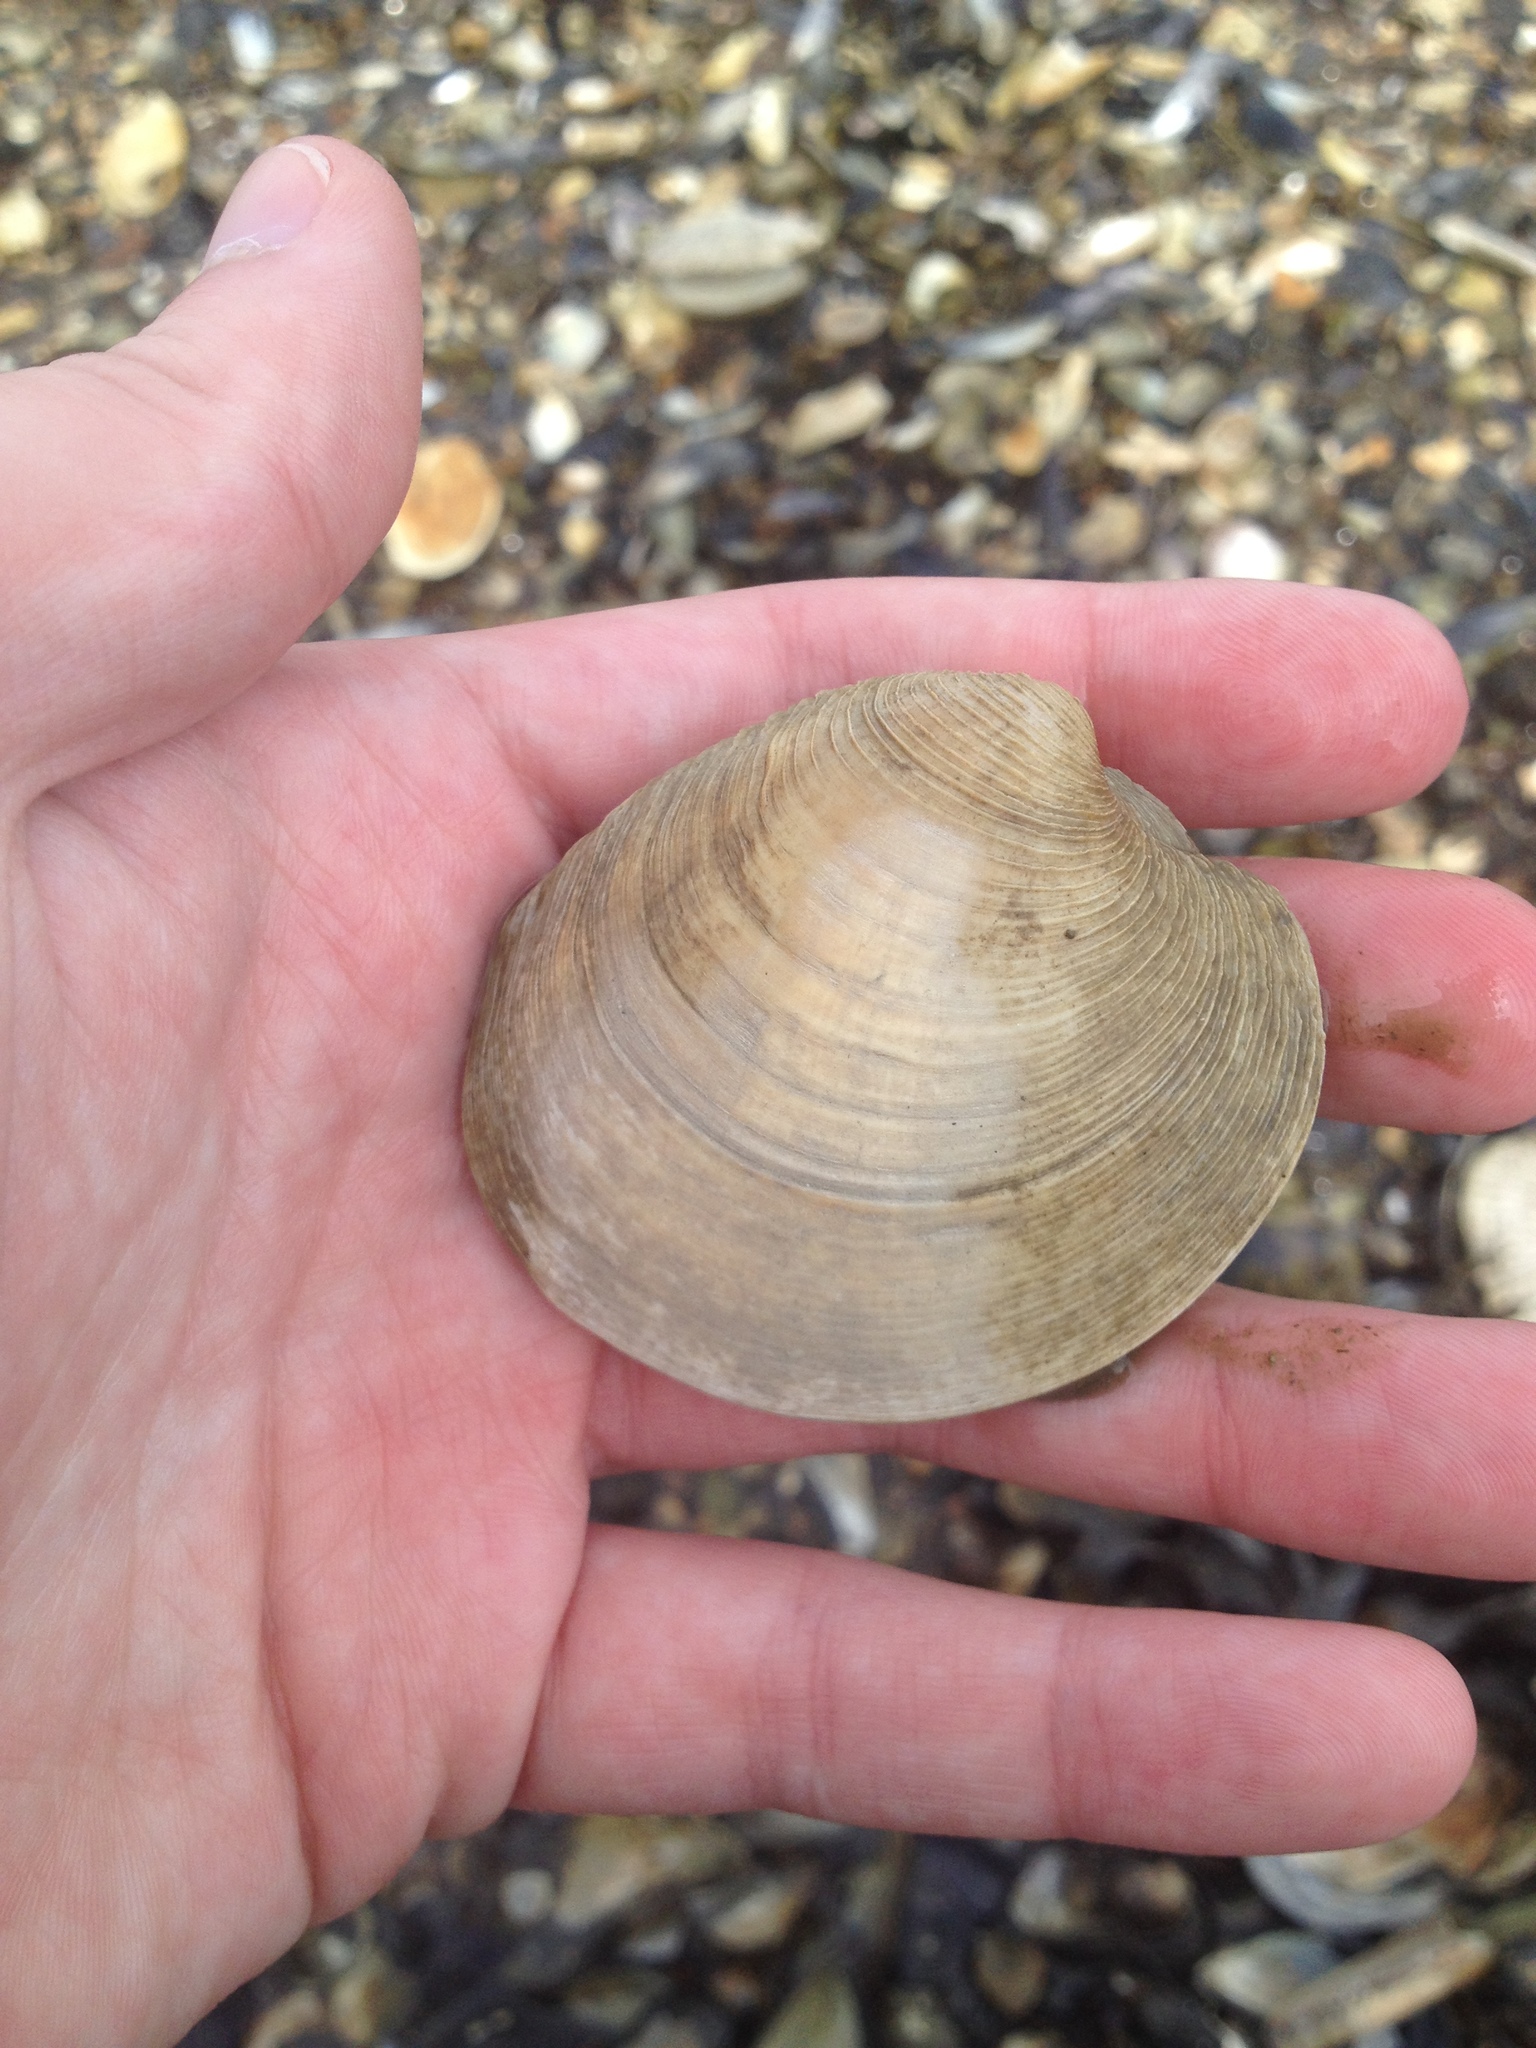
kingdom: Animalia
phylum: Mollusca
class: Bivalvia
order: Venerida
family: Veneridae
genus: Mercenaria
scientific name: Mercenaria mercenaria
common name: American hard-shelled clam
